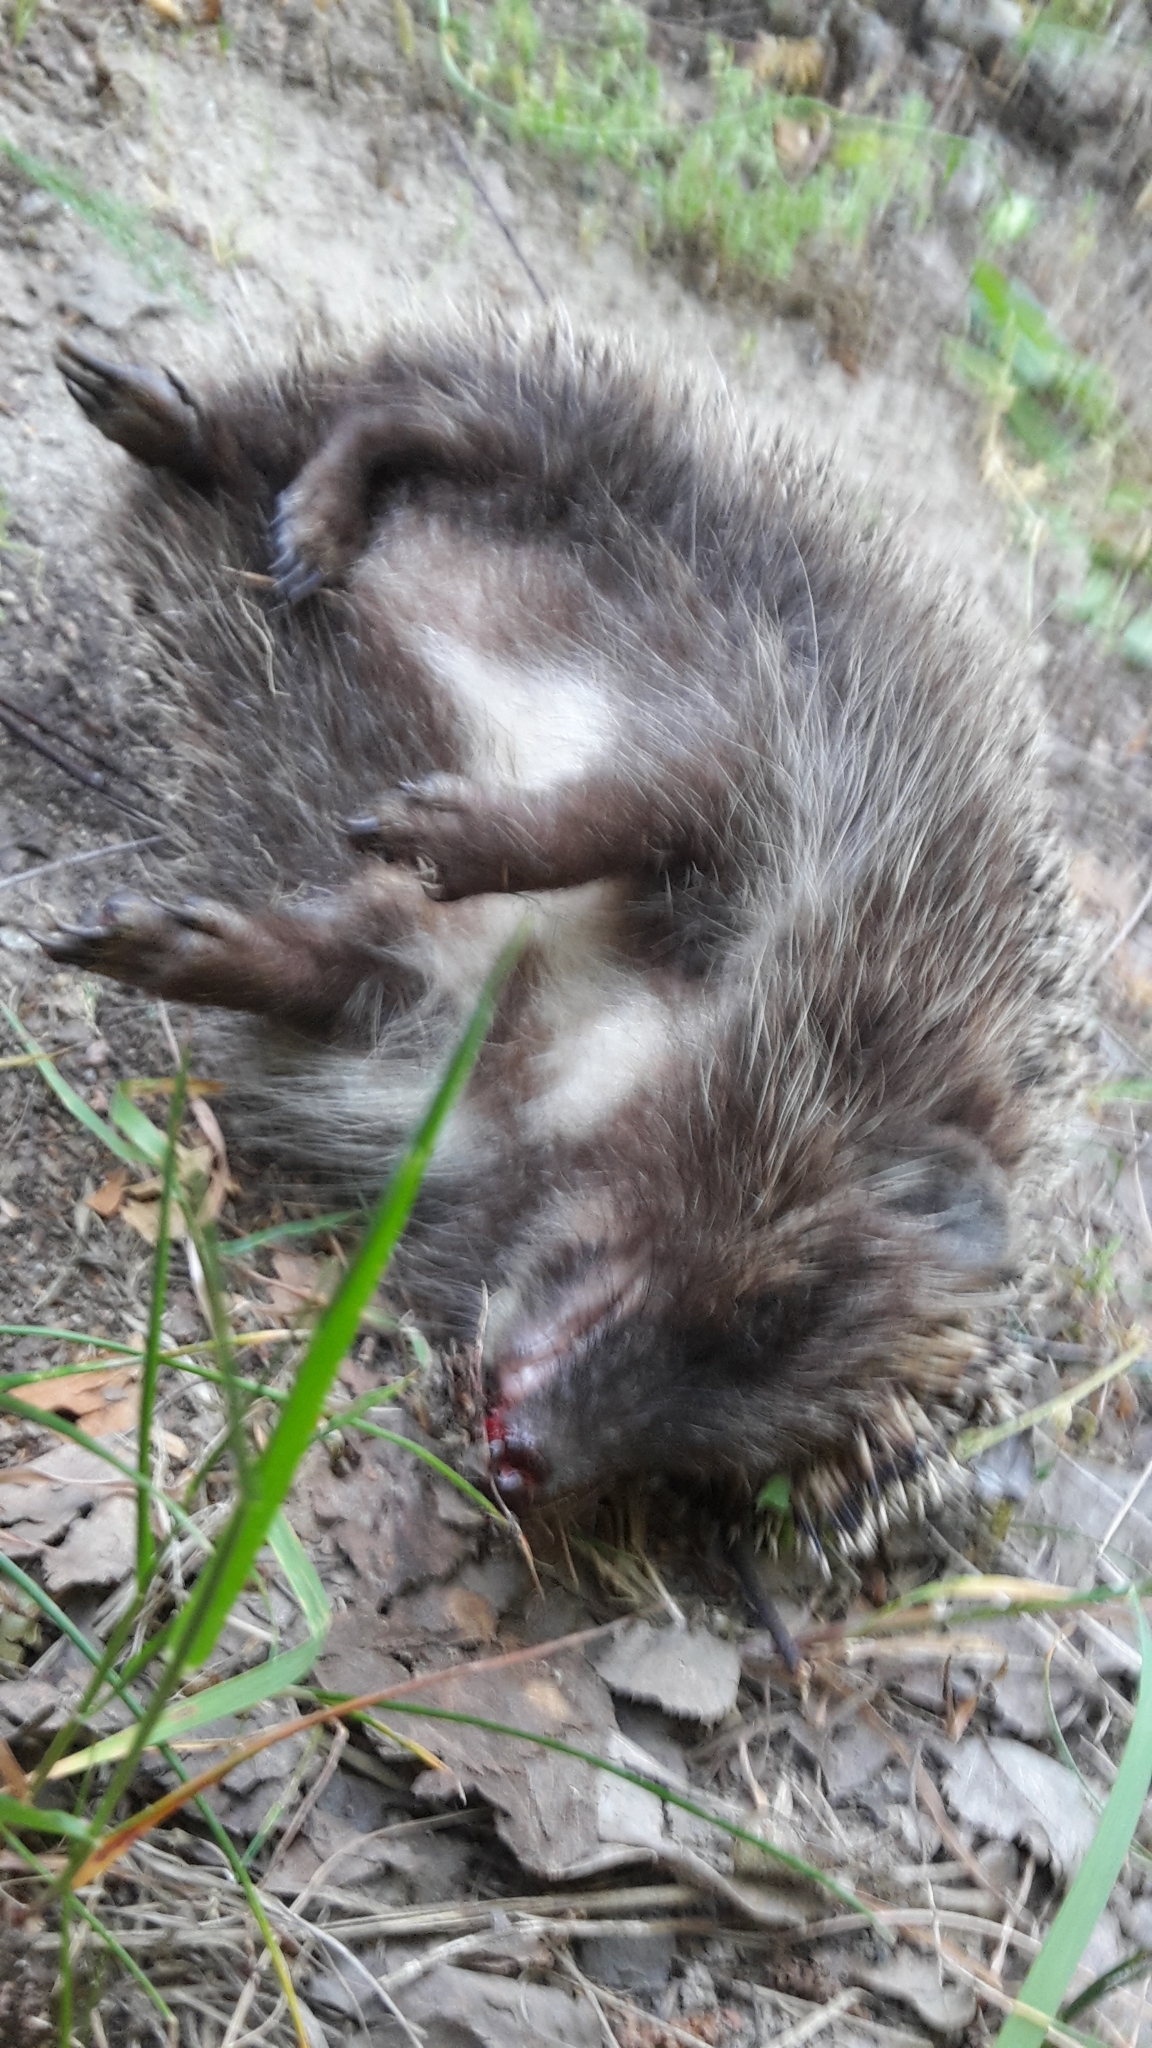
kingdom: Animalia
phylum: Chordata
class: Mammalia
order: Erinaceomorpha
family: Erinaceidae
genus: Erinaceus
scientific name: Erinaceus roumanicus
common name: Northern white-breasted hedgehog
